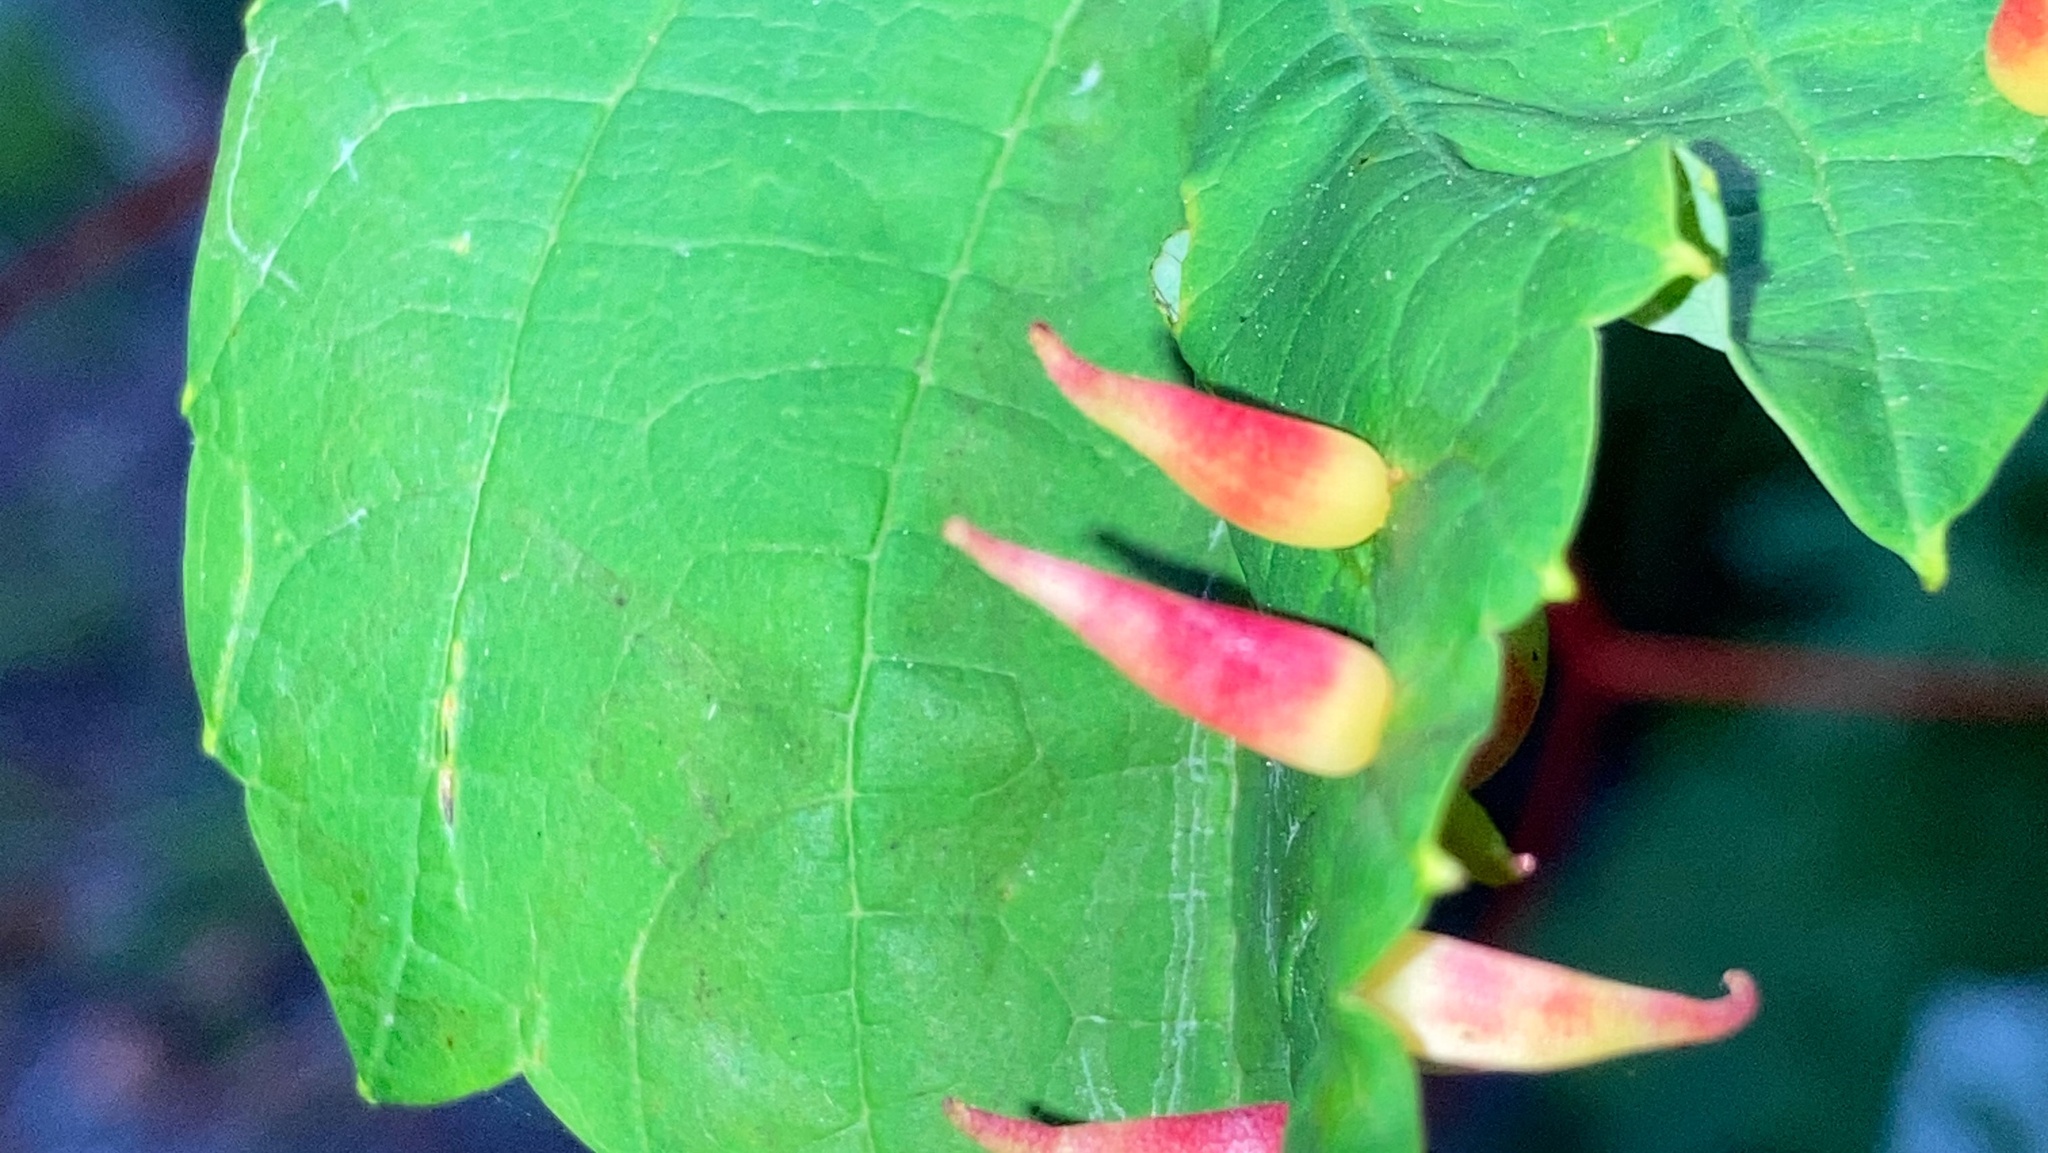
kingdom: Animalia
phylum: Arthropoda
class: Insecta
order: Diptera
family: Cecidomyiidae
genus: Ampelomyia
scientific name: Ampelomyia viticola
